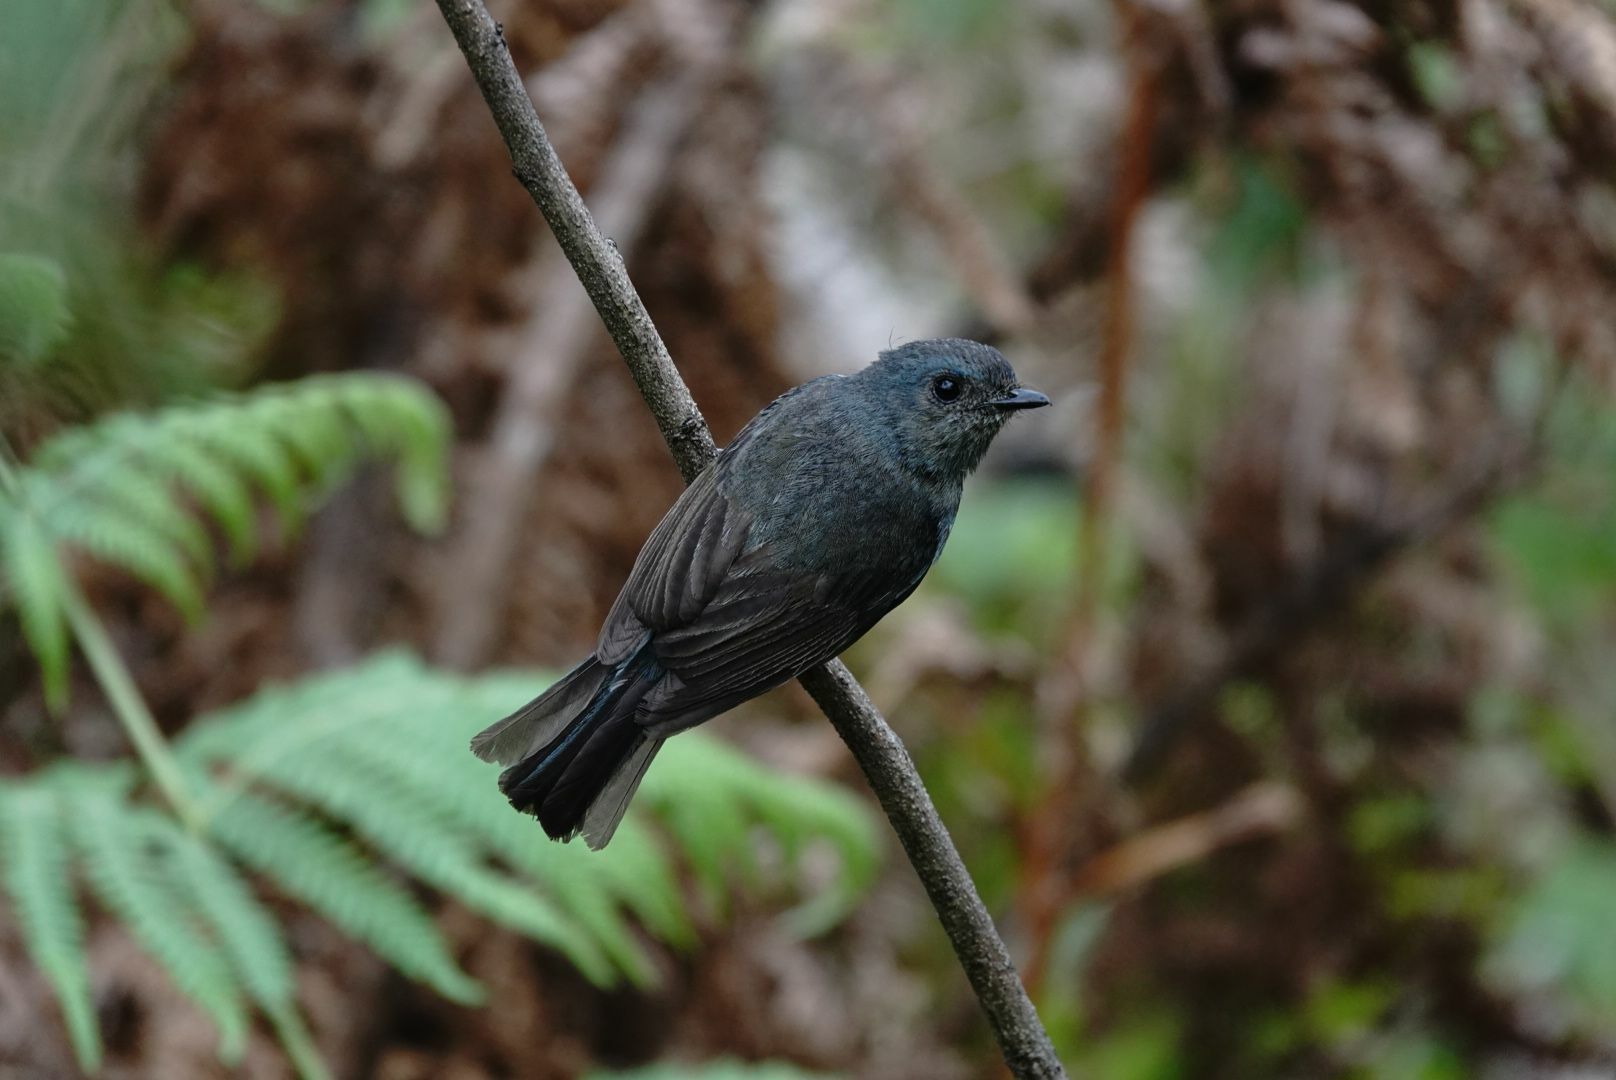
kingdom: Animalia
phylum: Chordata
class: Aves
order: Passeriformes
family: Muscicapidae
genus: Eumyias
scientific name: Eumyias albicaudatus
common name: Nilgiri flycatcher
